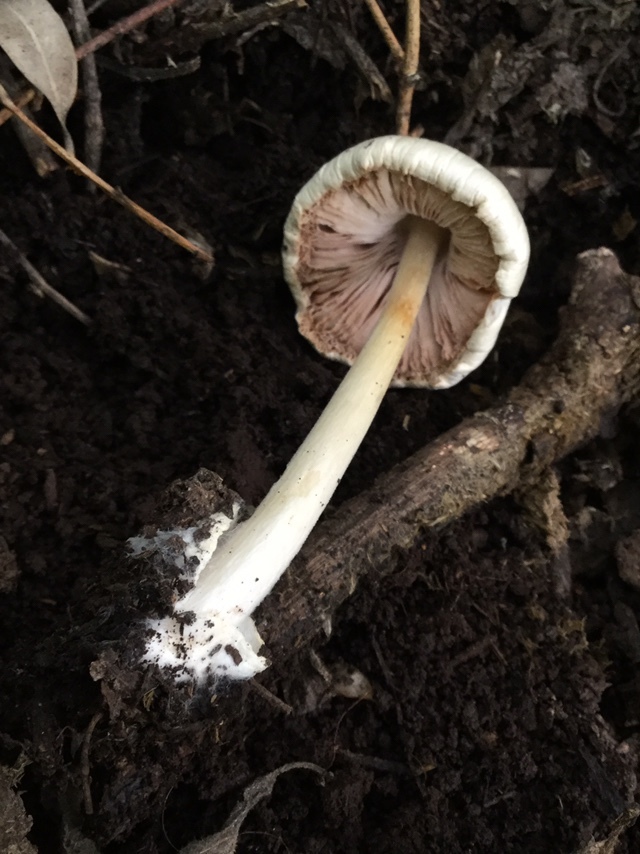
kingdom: Fungi
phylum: Basidiomycota
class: Agaricomycetes
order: Agaricales
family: Pluteaceae
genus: Volvopluteus
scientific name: Volvopluteus gloiocephalus
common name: Stubble rosegill
